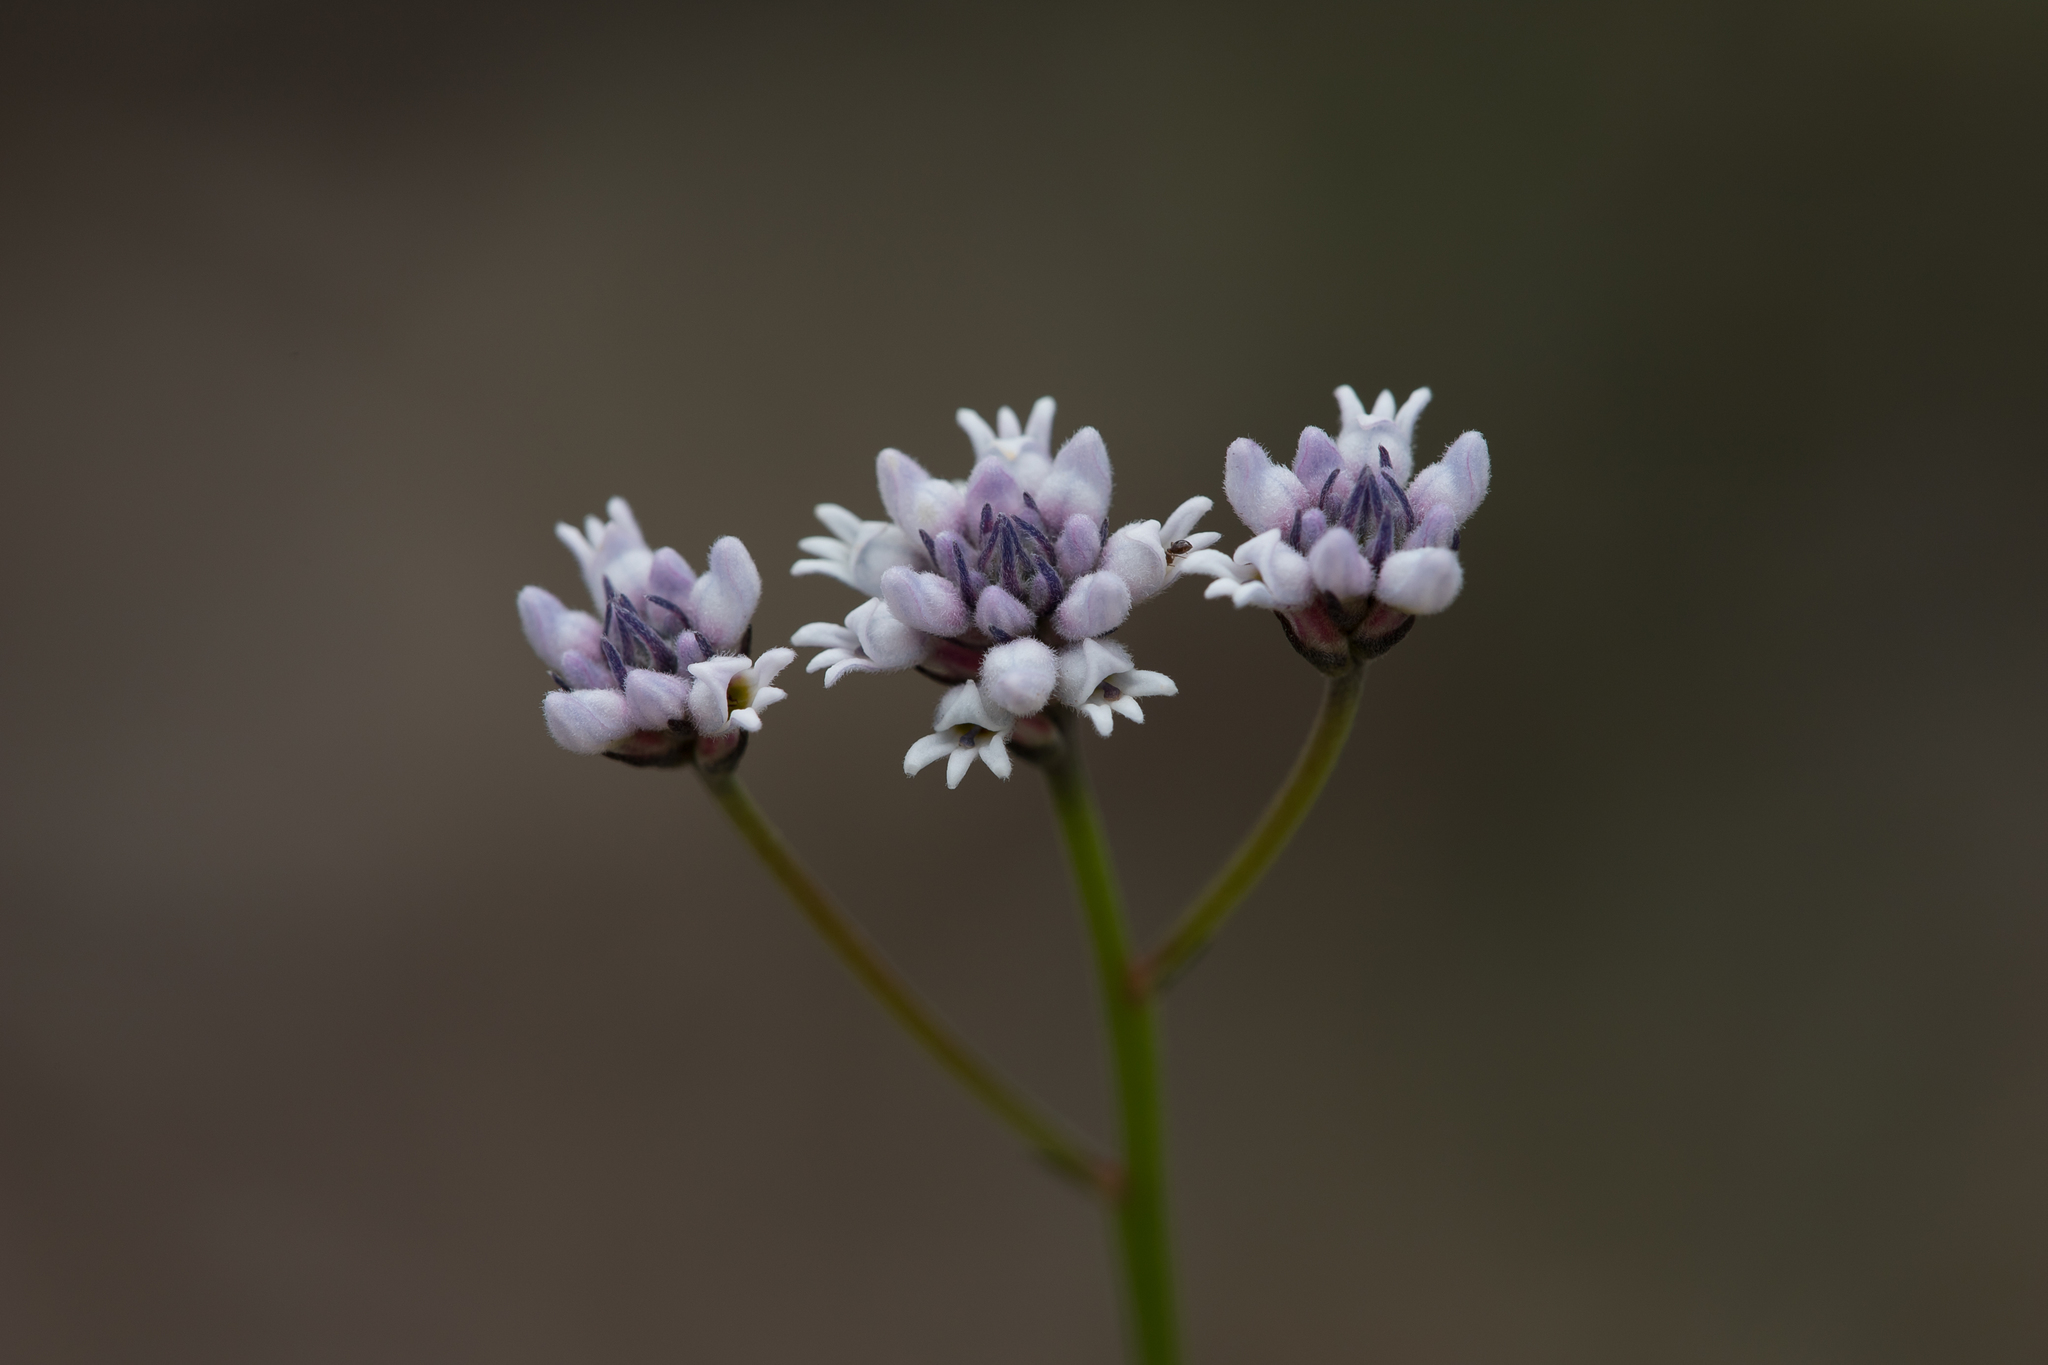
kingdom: Plantae
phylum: Tracheophyta
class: Magnoliopsida
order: Proteales
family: Proteaceae
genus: Conospermum
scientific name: Conospermum patens
